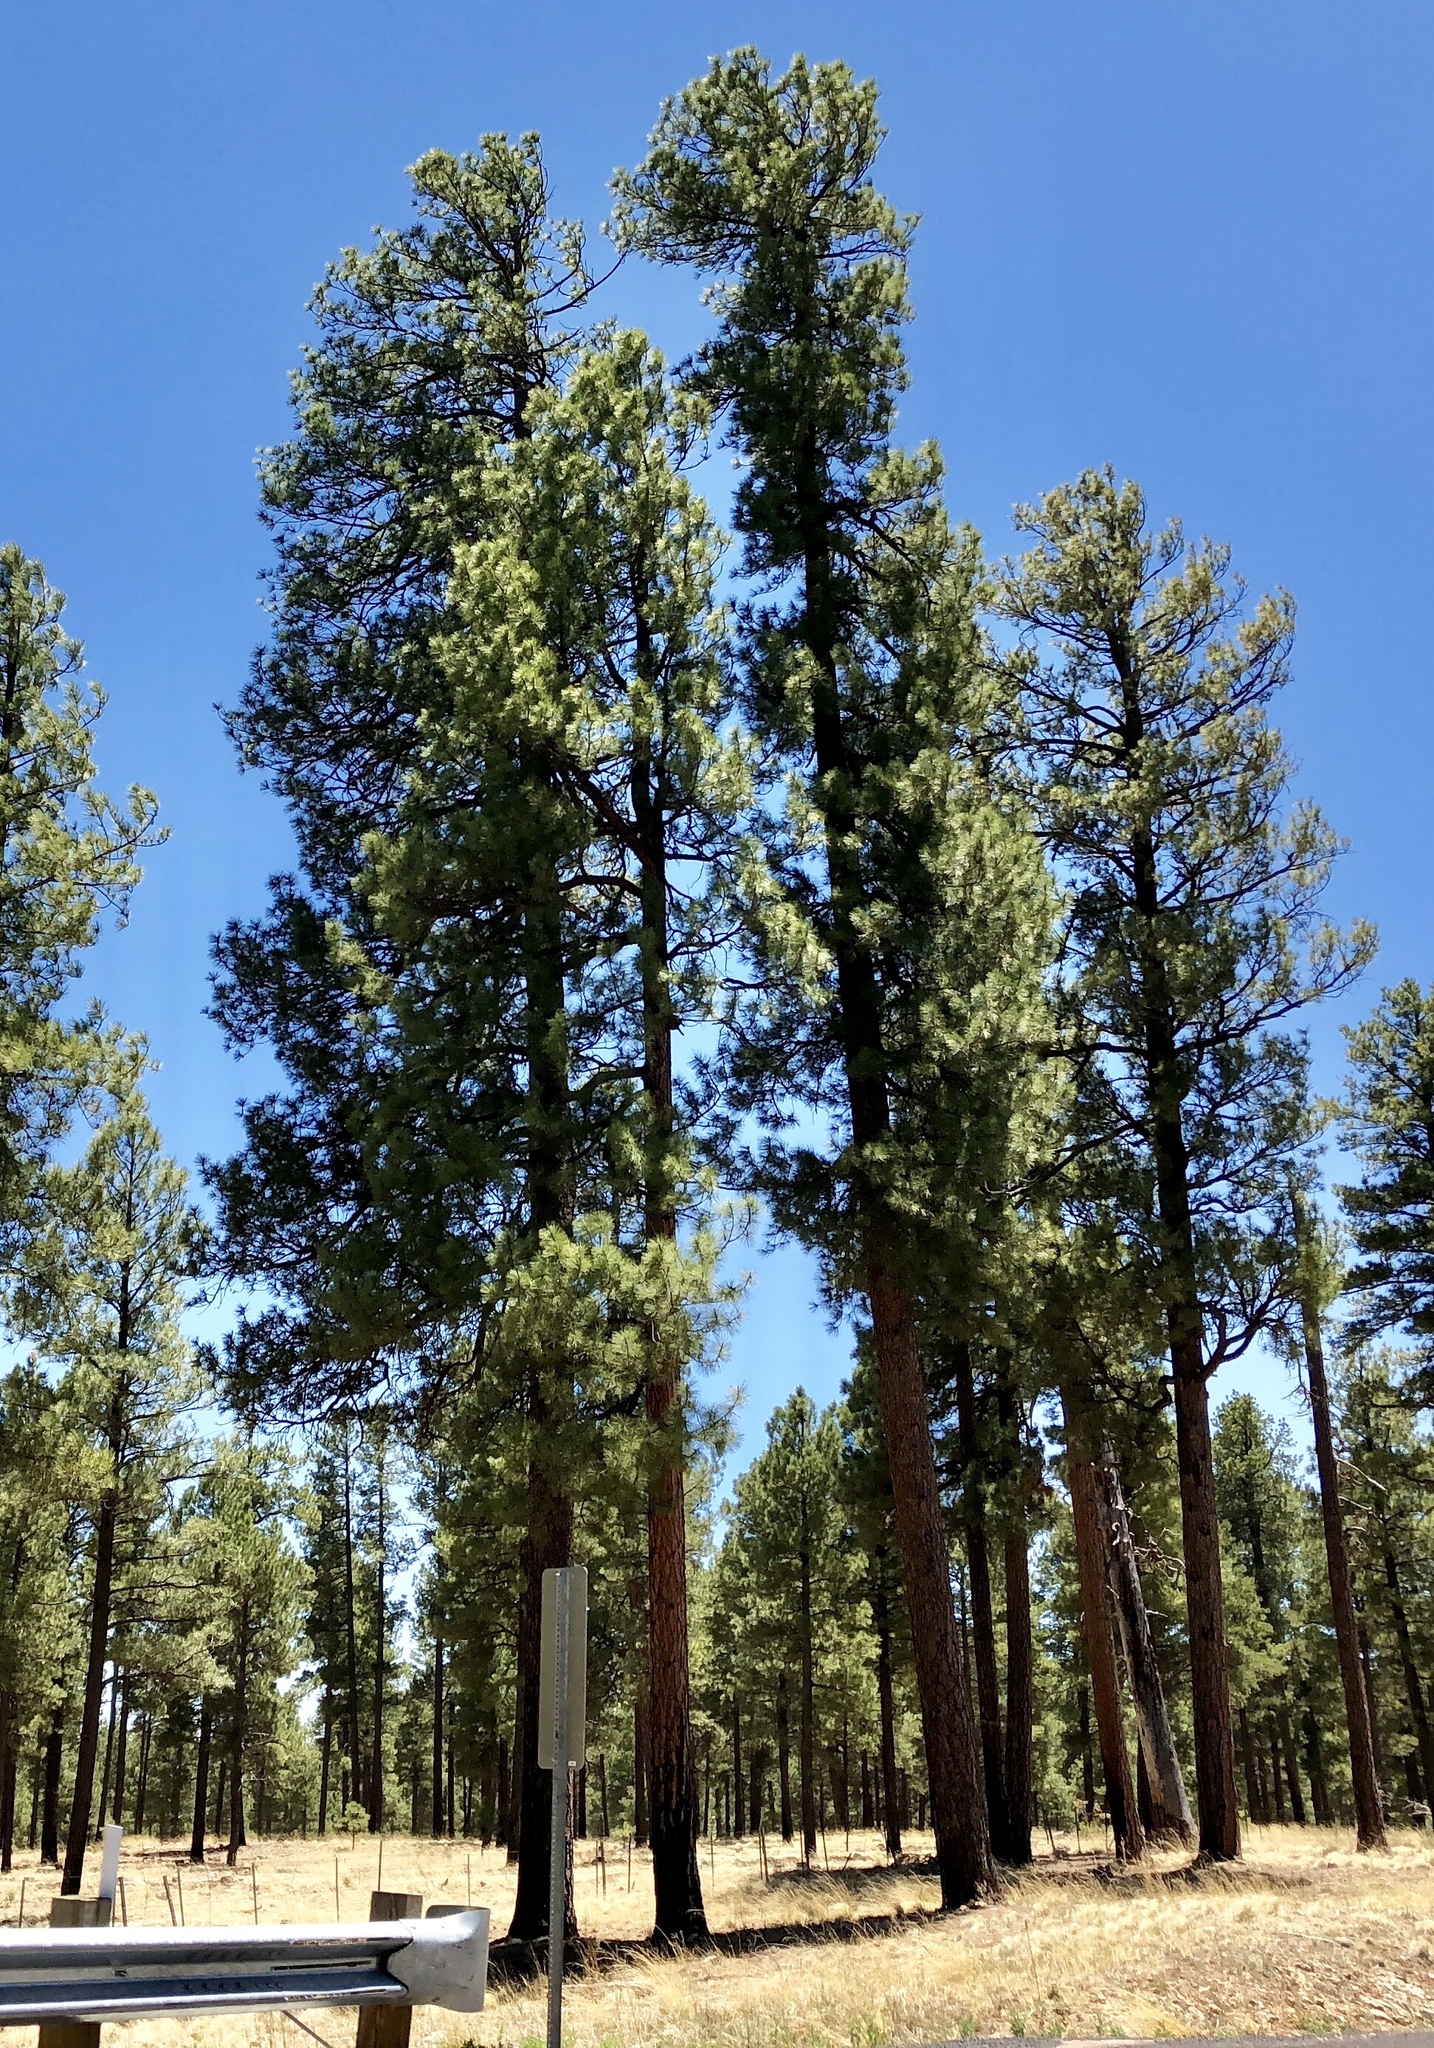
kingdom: Plantae
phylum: Tracheophyta
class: Pinopsida
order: Pinales
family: Pinaceae
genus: Pinus
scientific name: Pinus ponderosa
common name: Western yellow-pine
